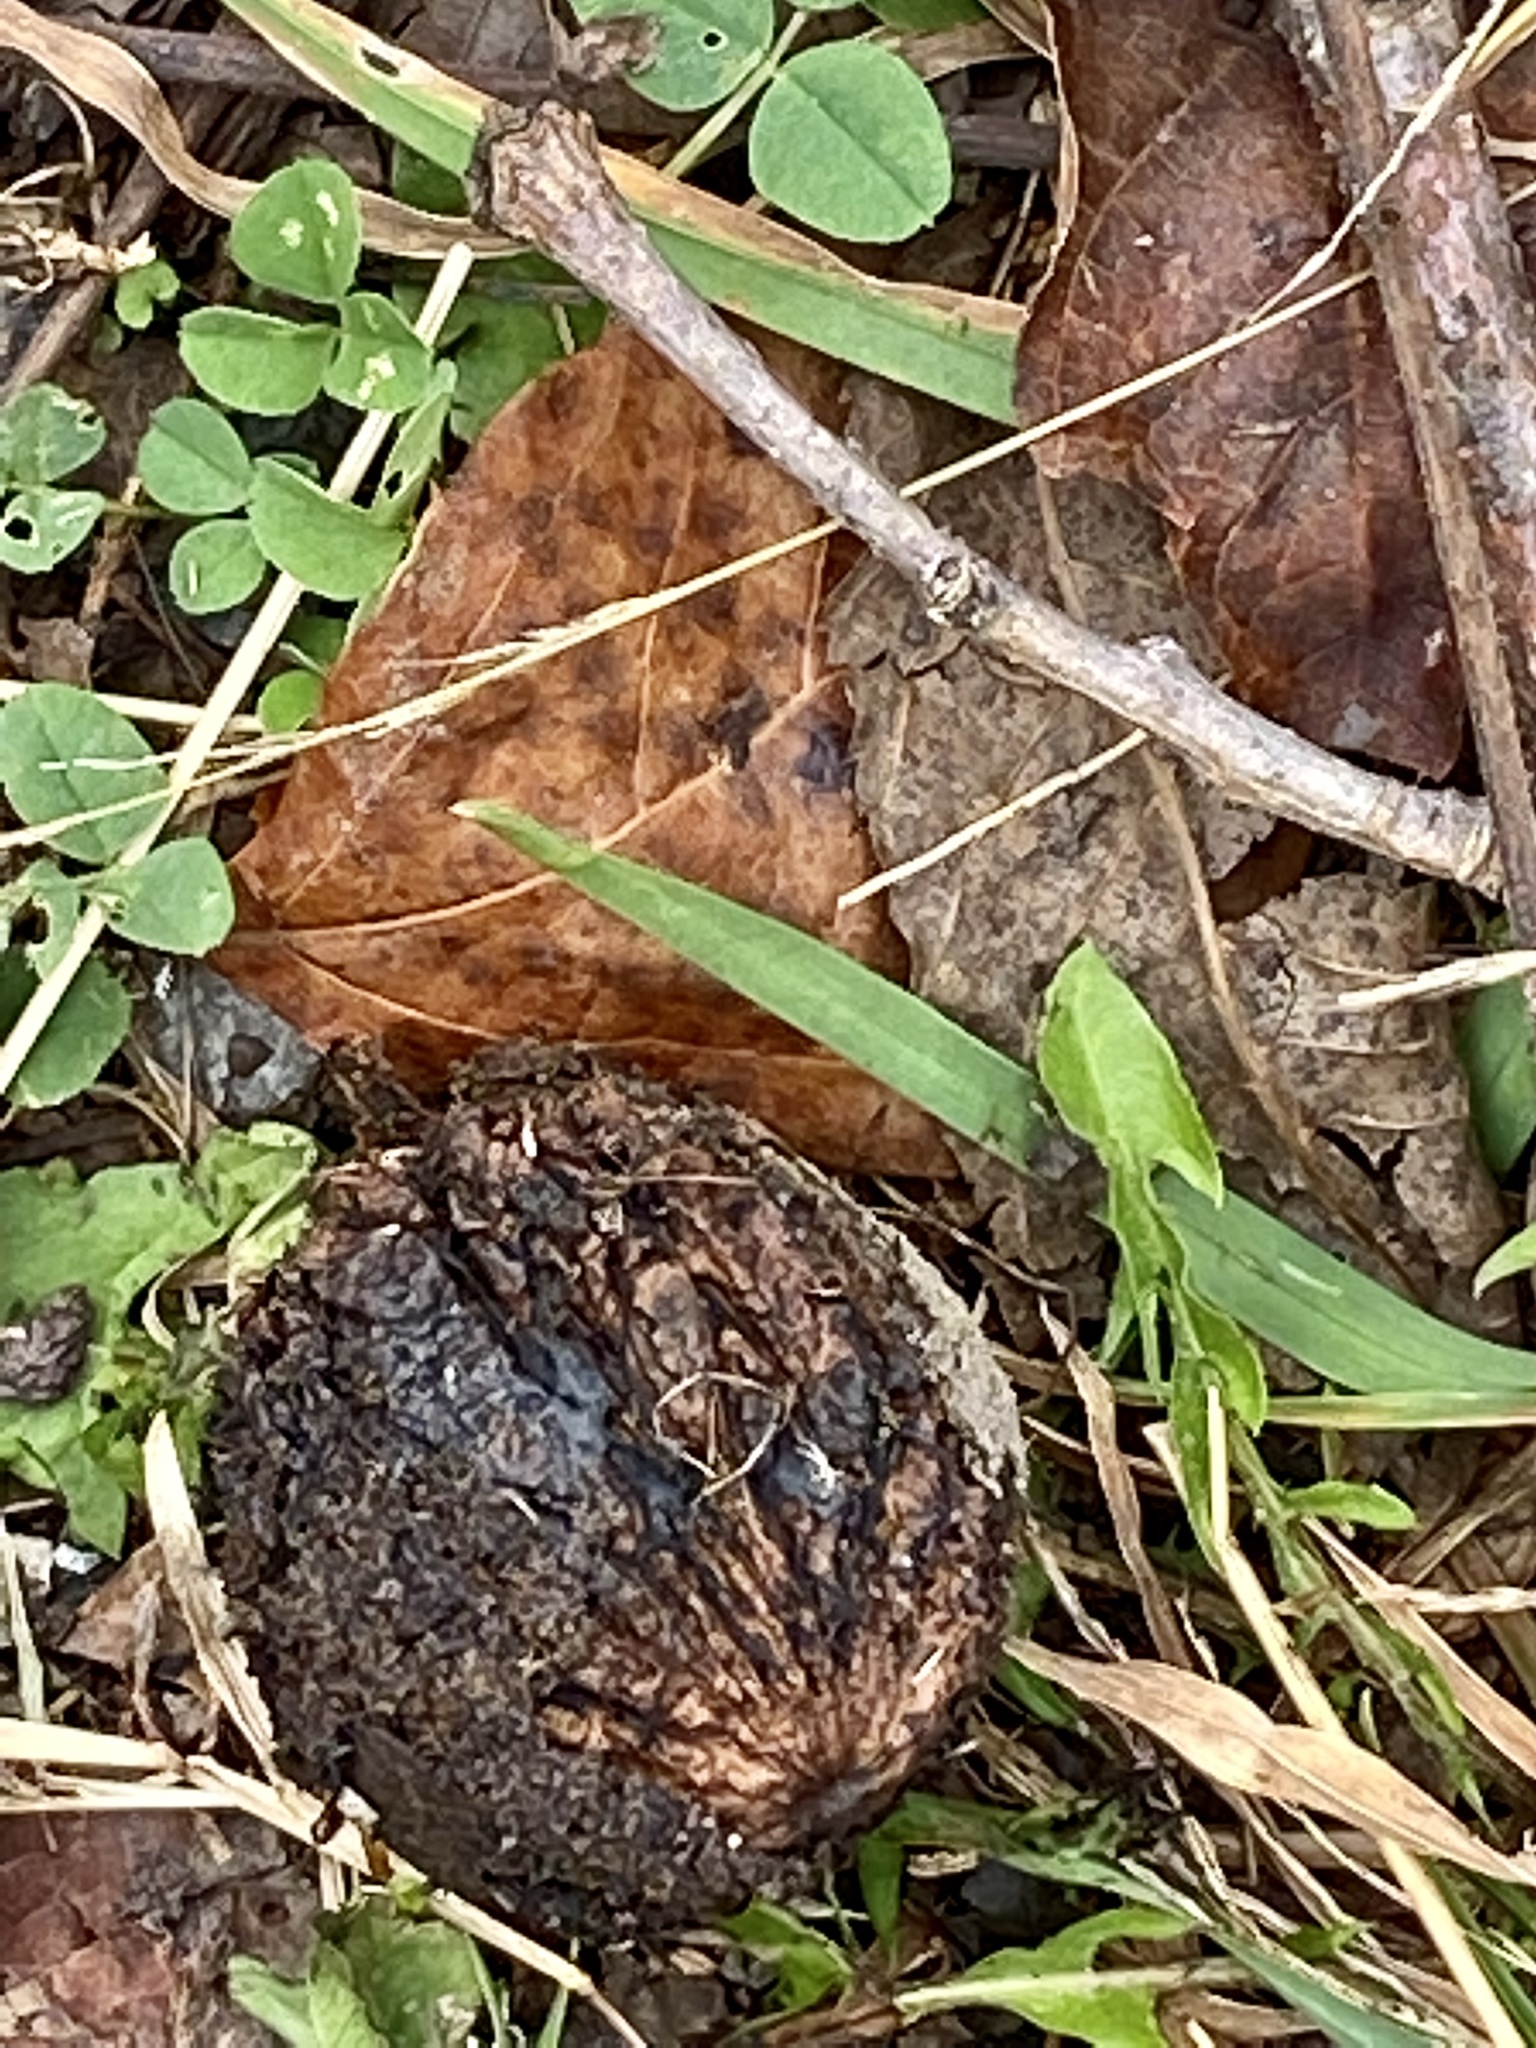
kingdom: Plantae
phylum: Tracheophyta
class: Magnoliopsida
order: Fagales
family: Juglandaceae
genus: Juglans
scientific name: Juglans nigra
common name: Black walnut
